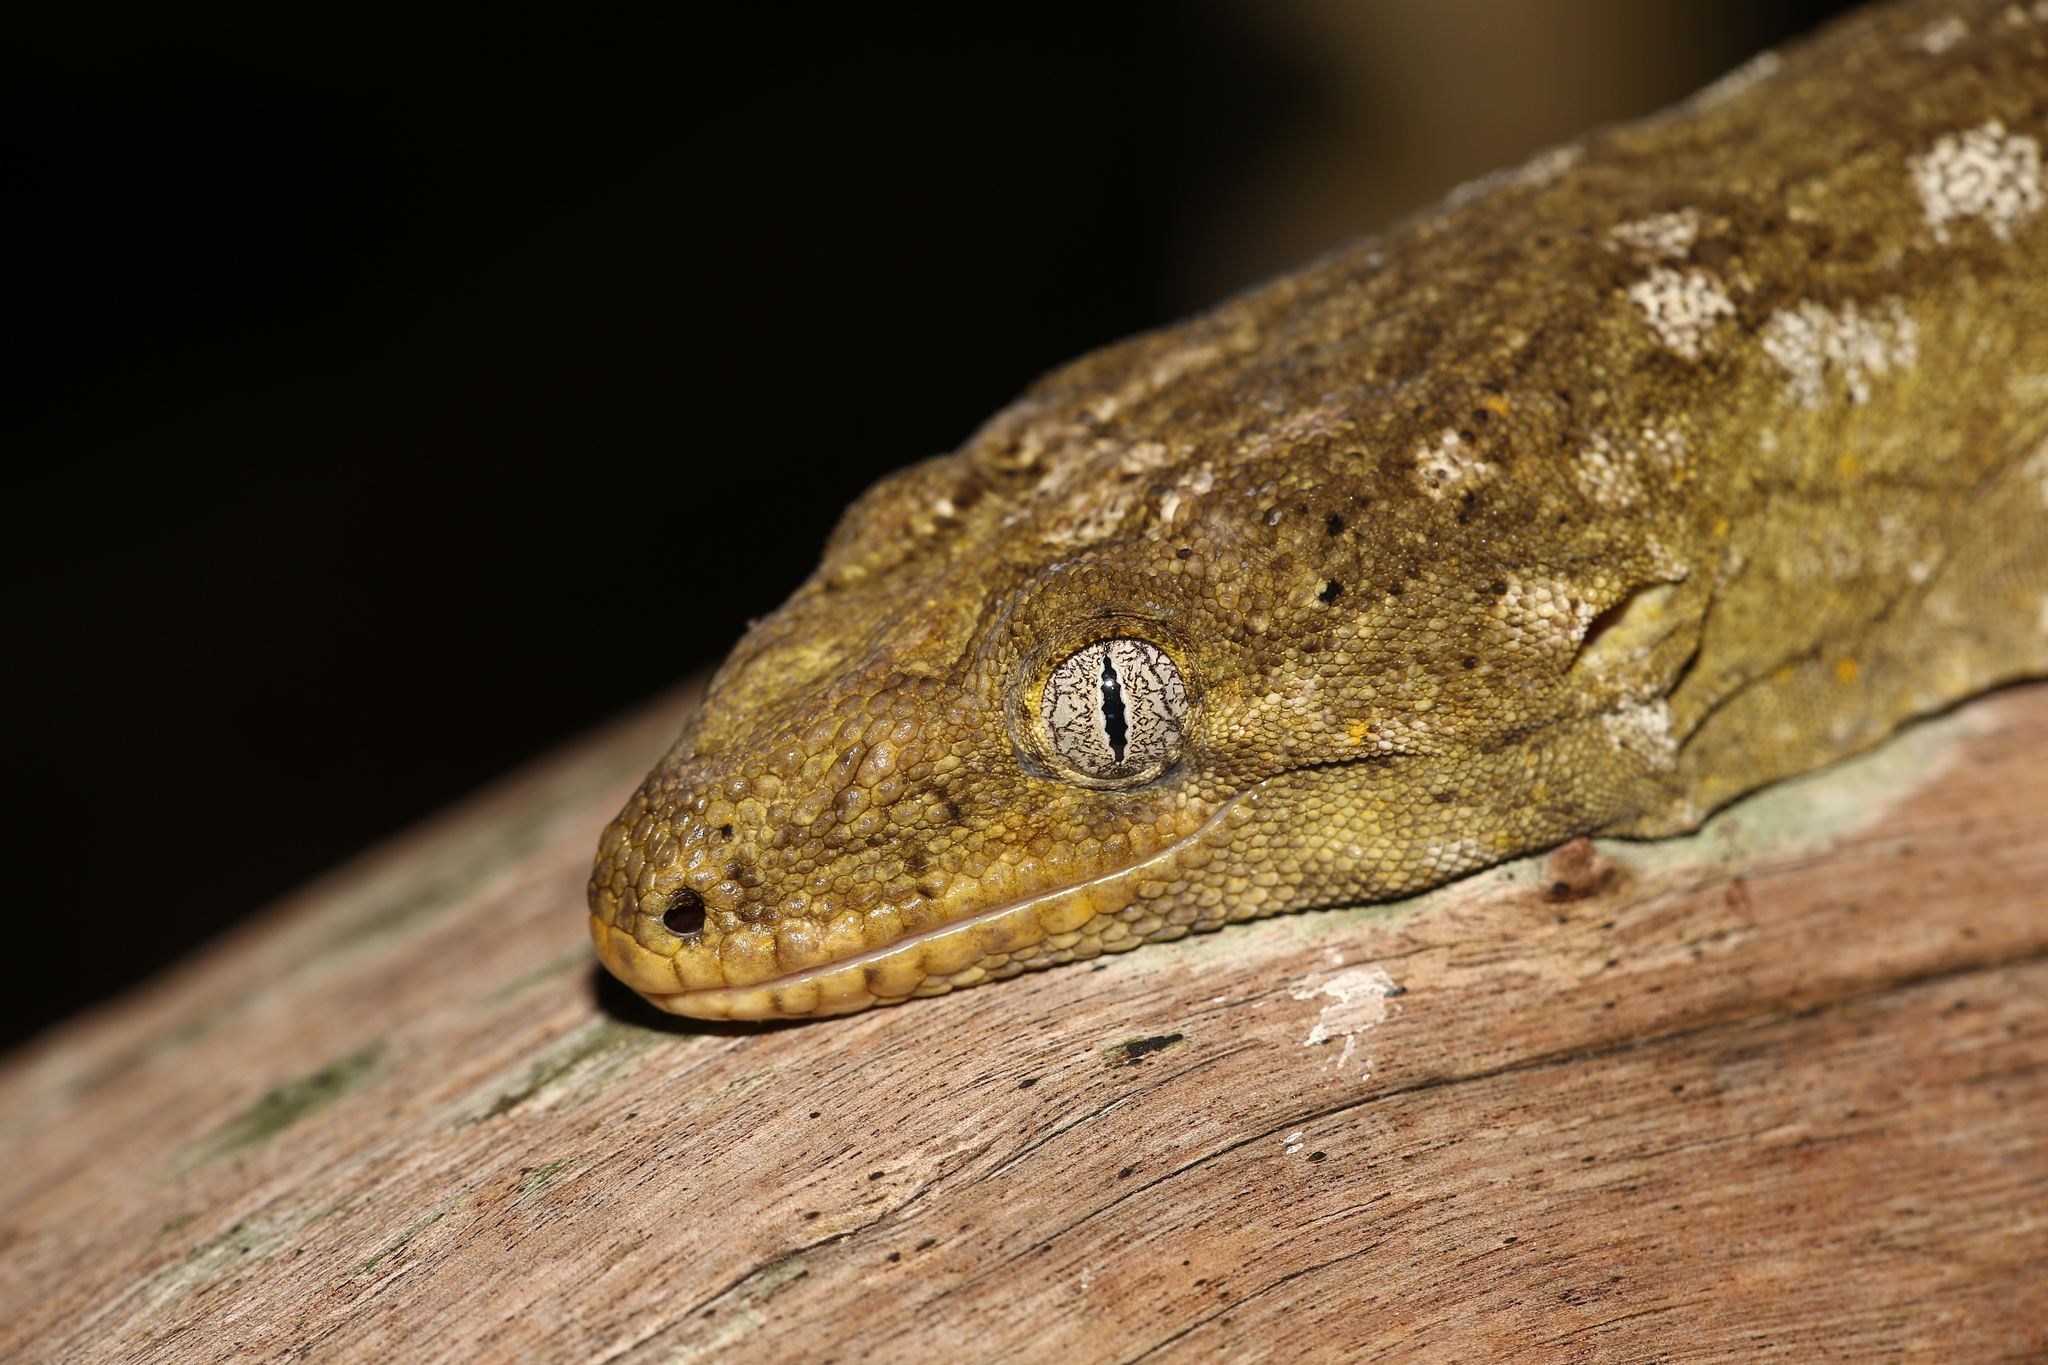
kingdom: Animalia
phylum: Chordata
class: Squamata
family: Diplodactylidae
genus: Rhacodactylus
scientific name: Rhacodactylus leachianus
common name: New caledonia giant gecko
